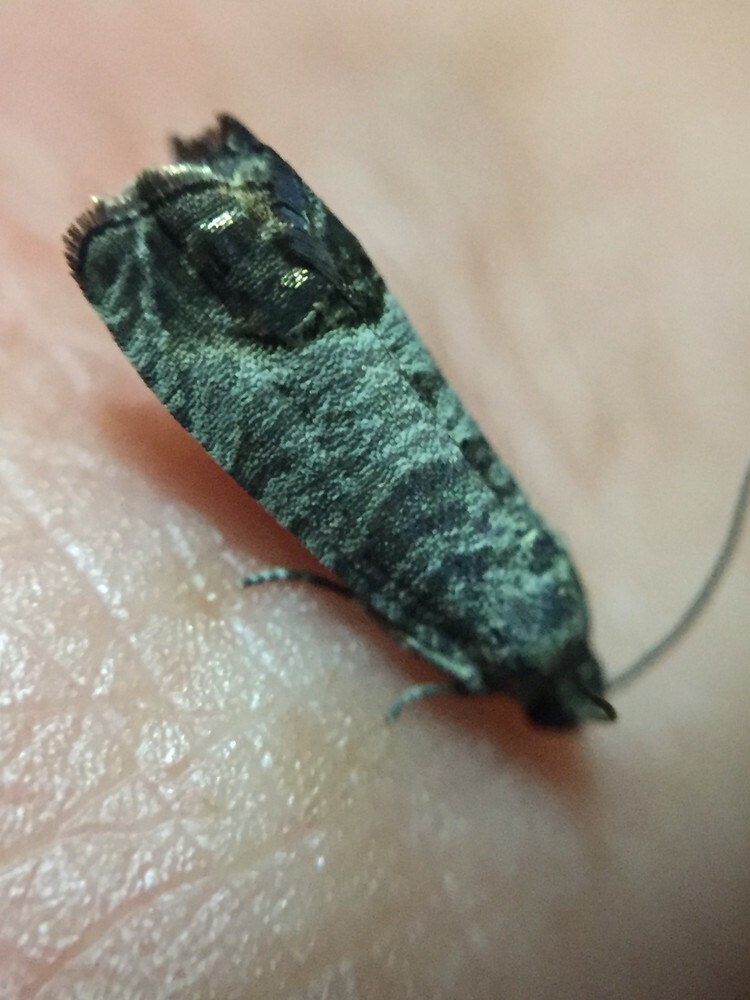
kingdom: Animalia
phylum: Arthropoda
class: Insecta
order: Lepidoptera
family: Tortricidae
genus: Cydia
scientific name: Cydia pomonella
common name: Codling moth
